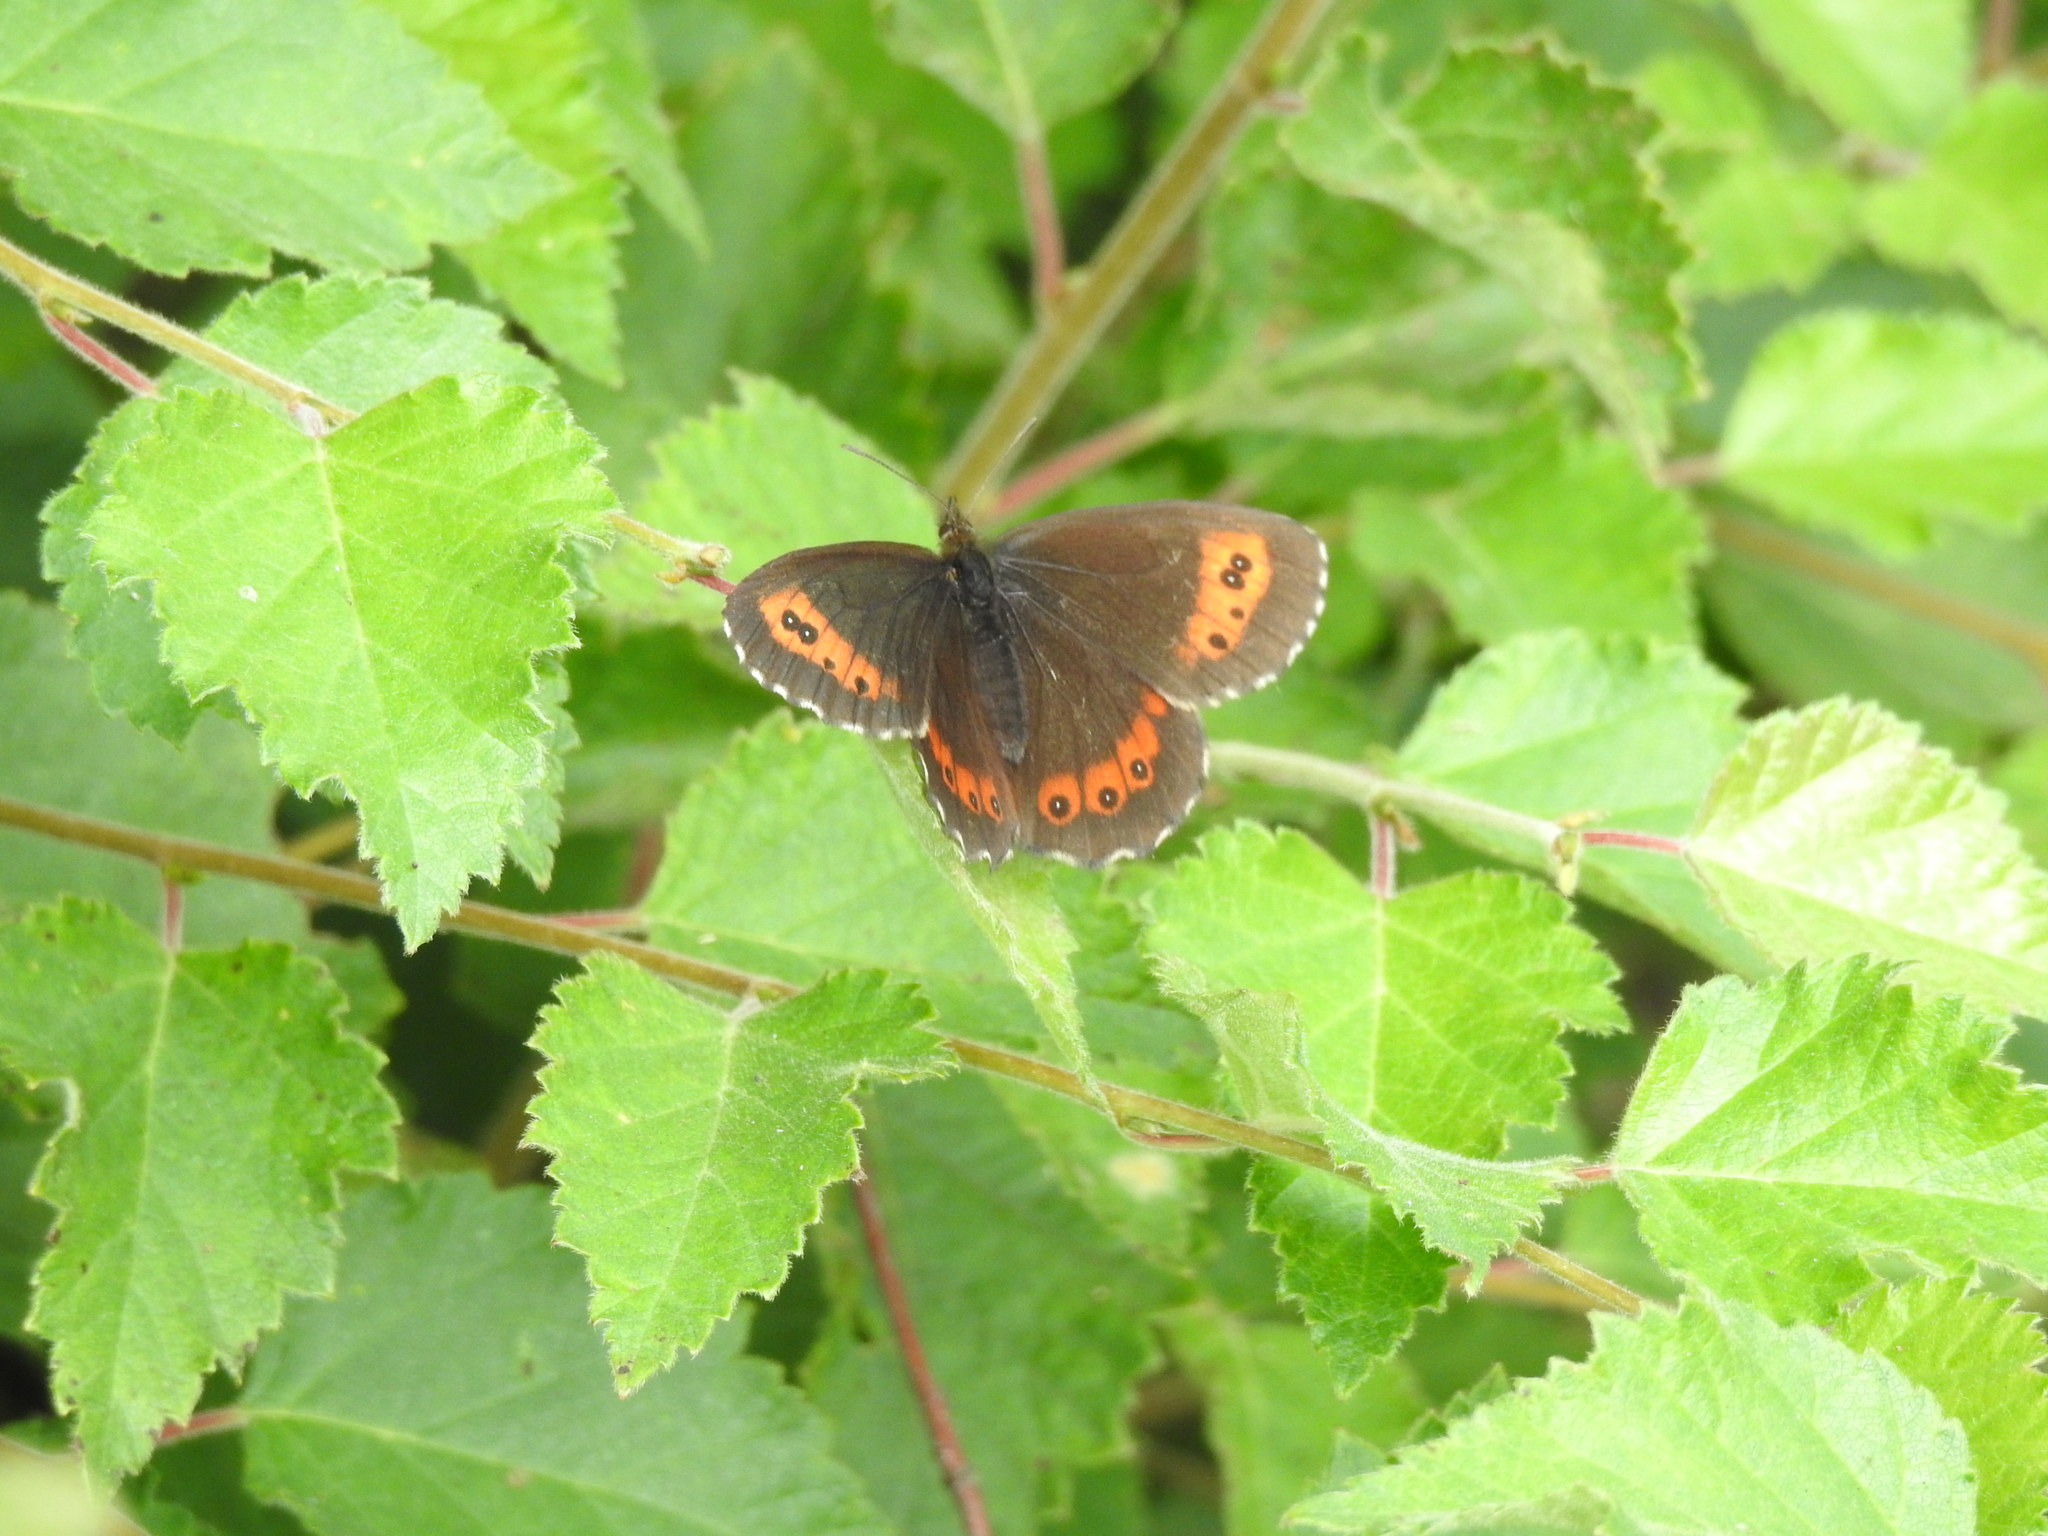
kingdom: Animalia
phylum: Arthropoda
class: Insecta
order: Lepidoptera
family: Nymphalidae
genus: Erebia
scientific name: Erebia ligea
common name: Arran brown
